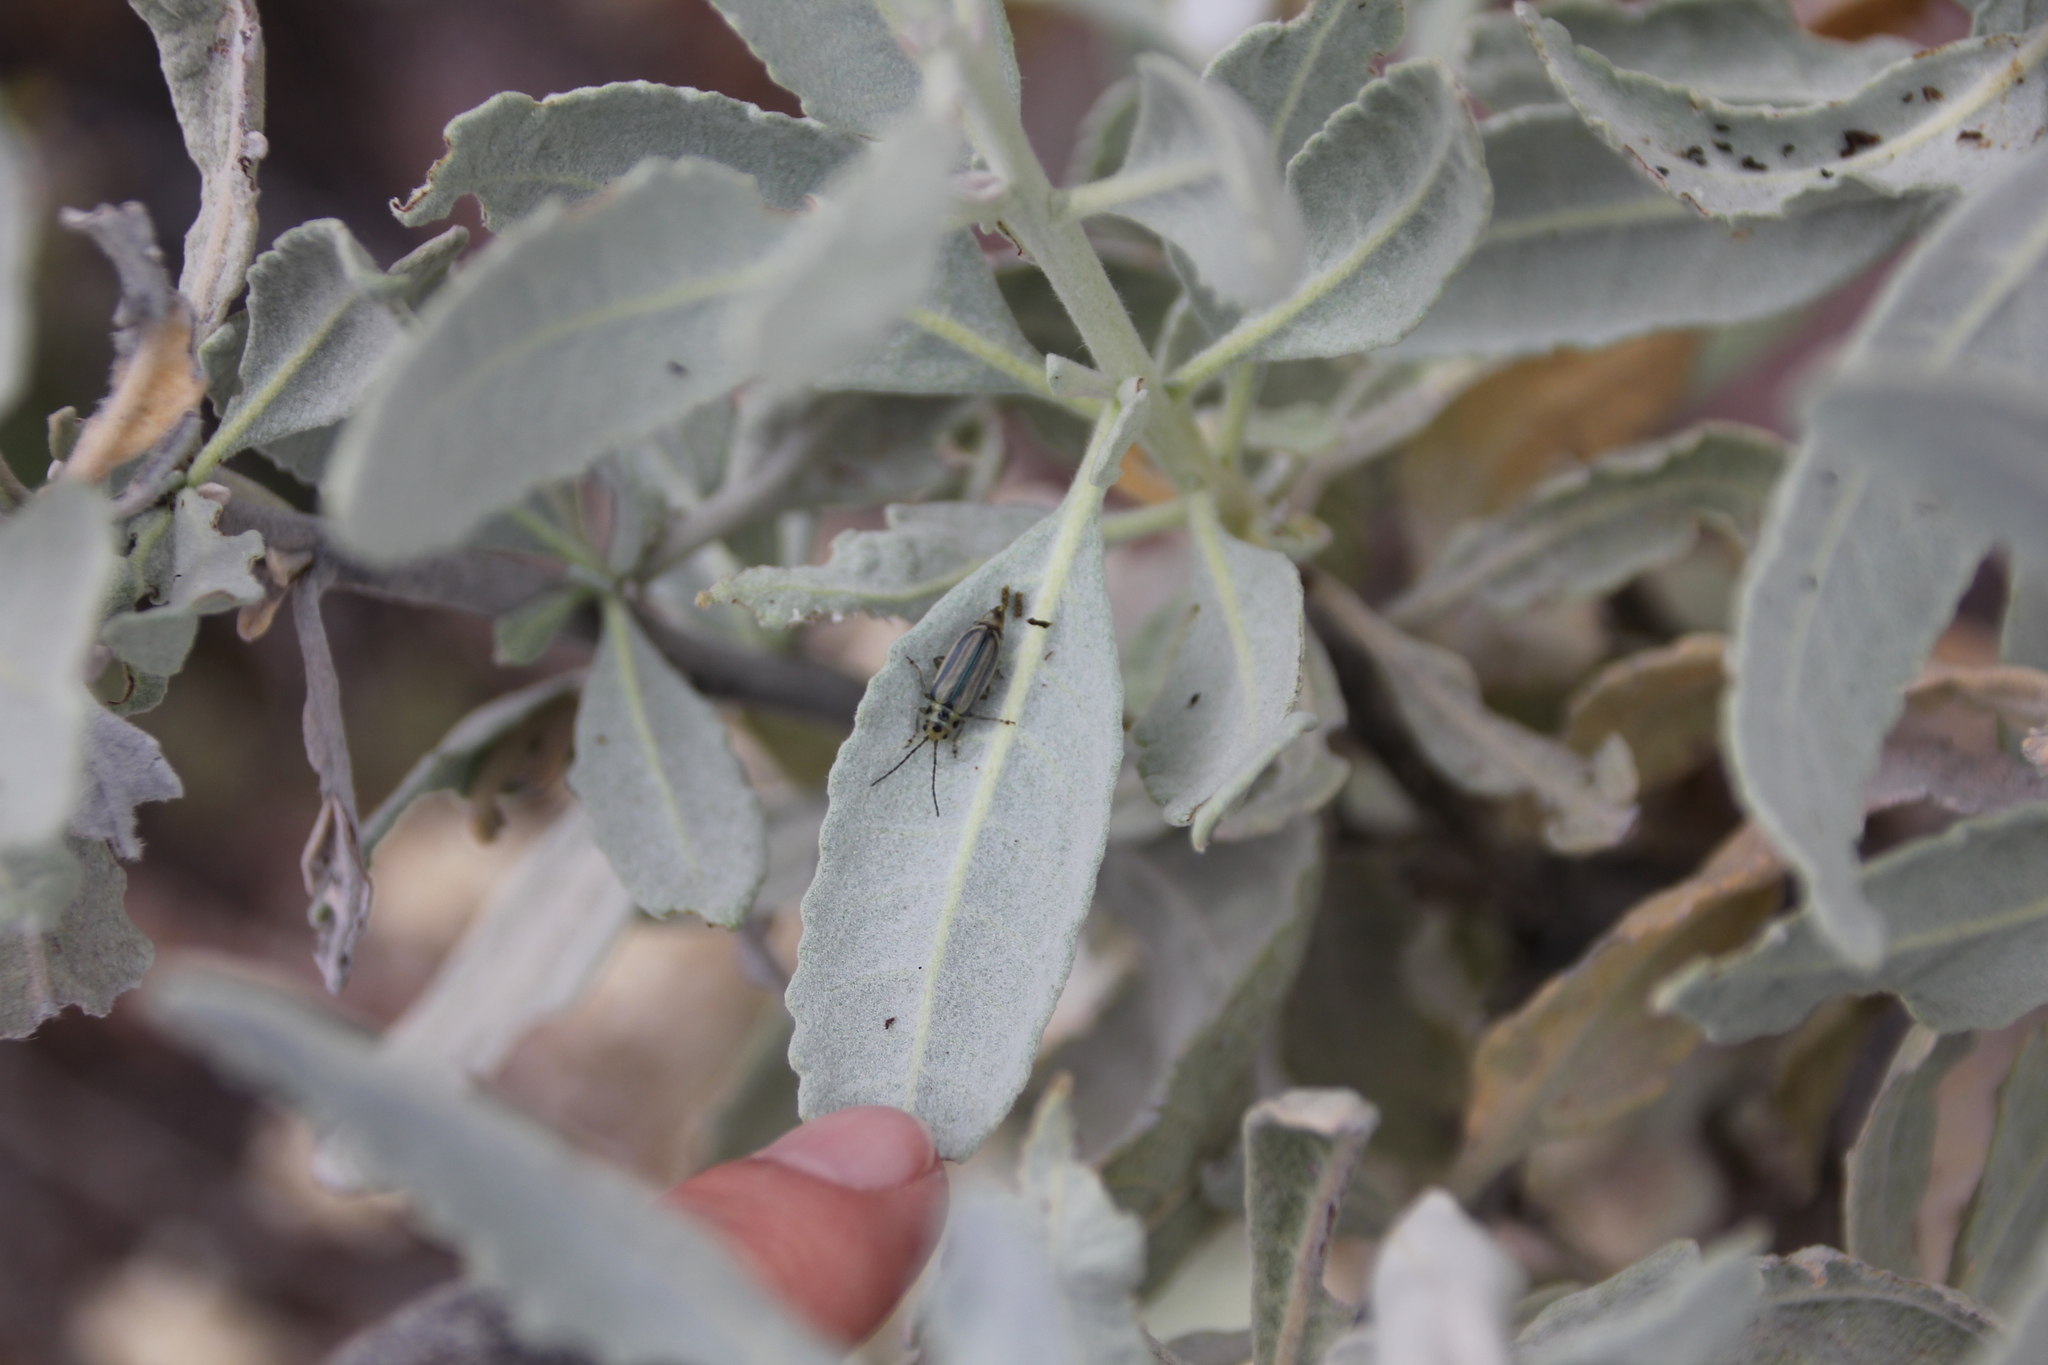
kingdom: Animalia
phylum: Arthropoda
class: Insecta
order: Coleoptera
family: Chrysomelidae
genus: Trirhabda
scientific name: Trirhabda diducta
